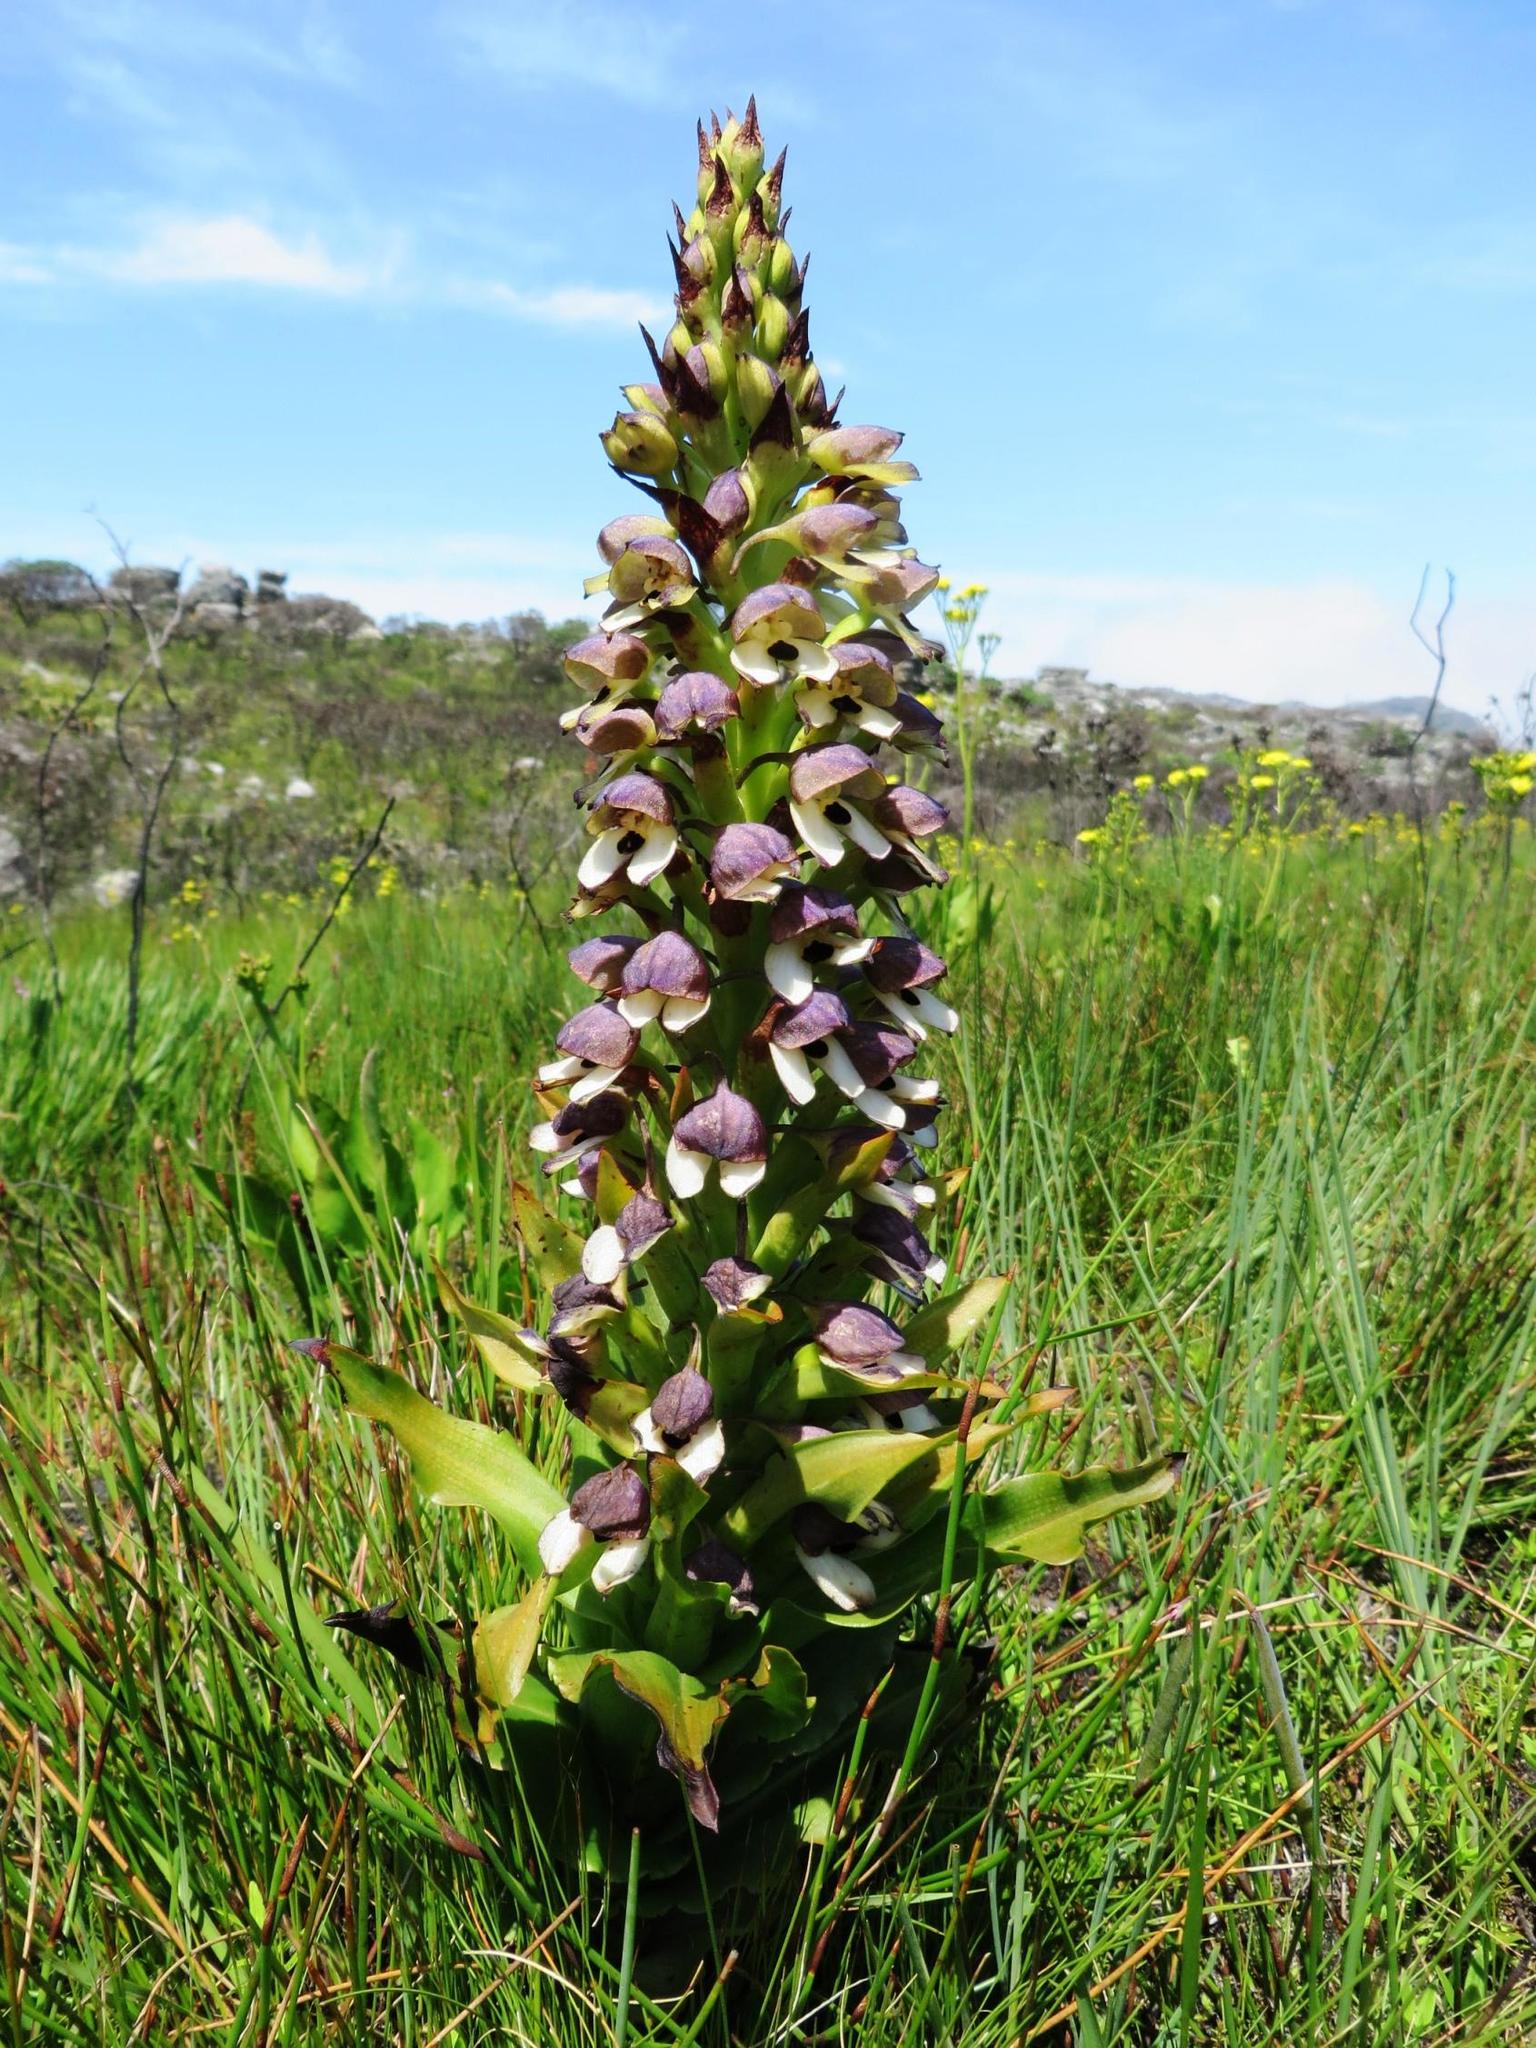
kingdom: Plantae
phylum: Tracheophyta
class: Liliopsida
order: Asparagales
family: Orchidaceae
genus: Disa
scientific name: Disa cornuta
